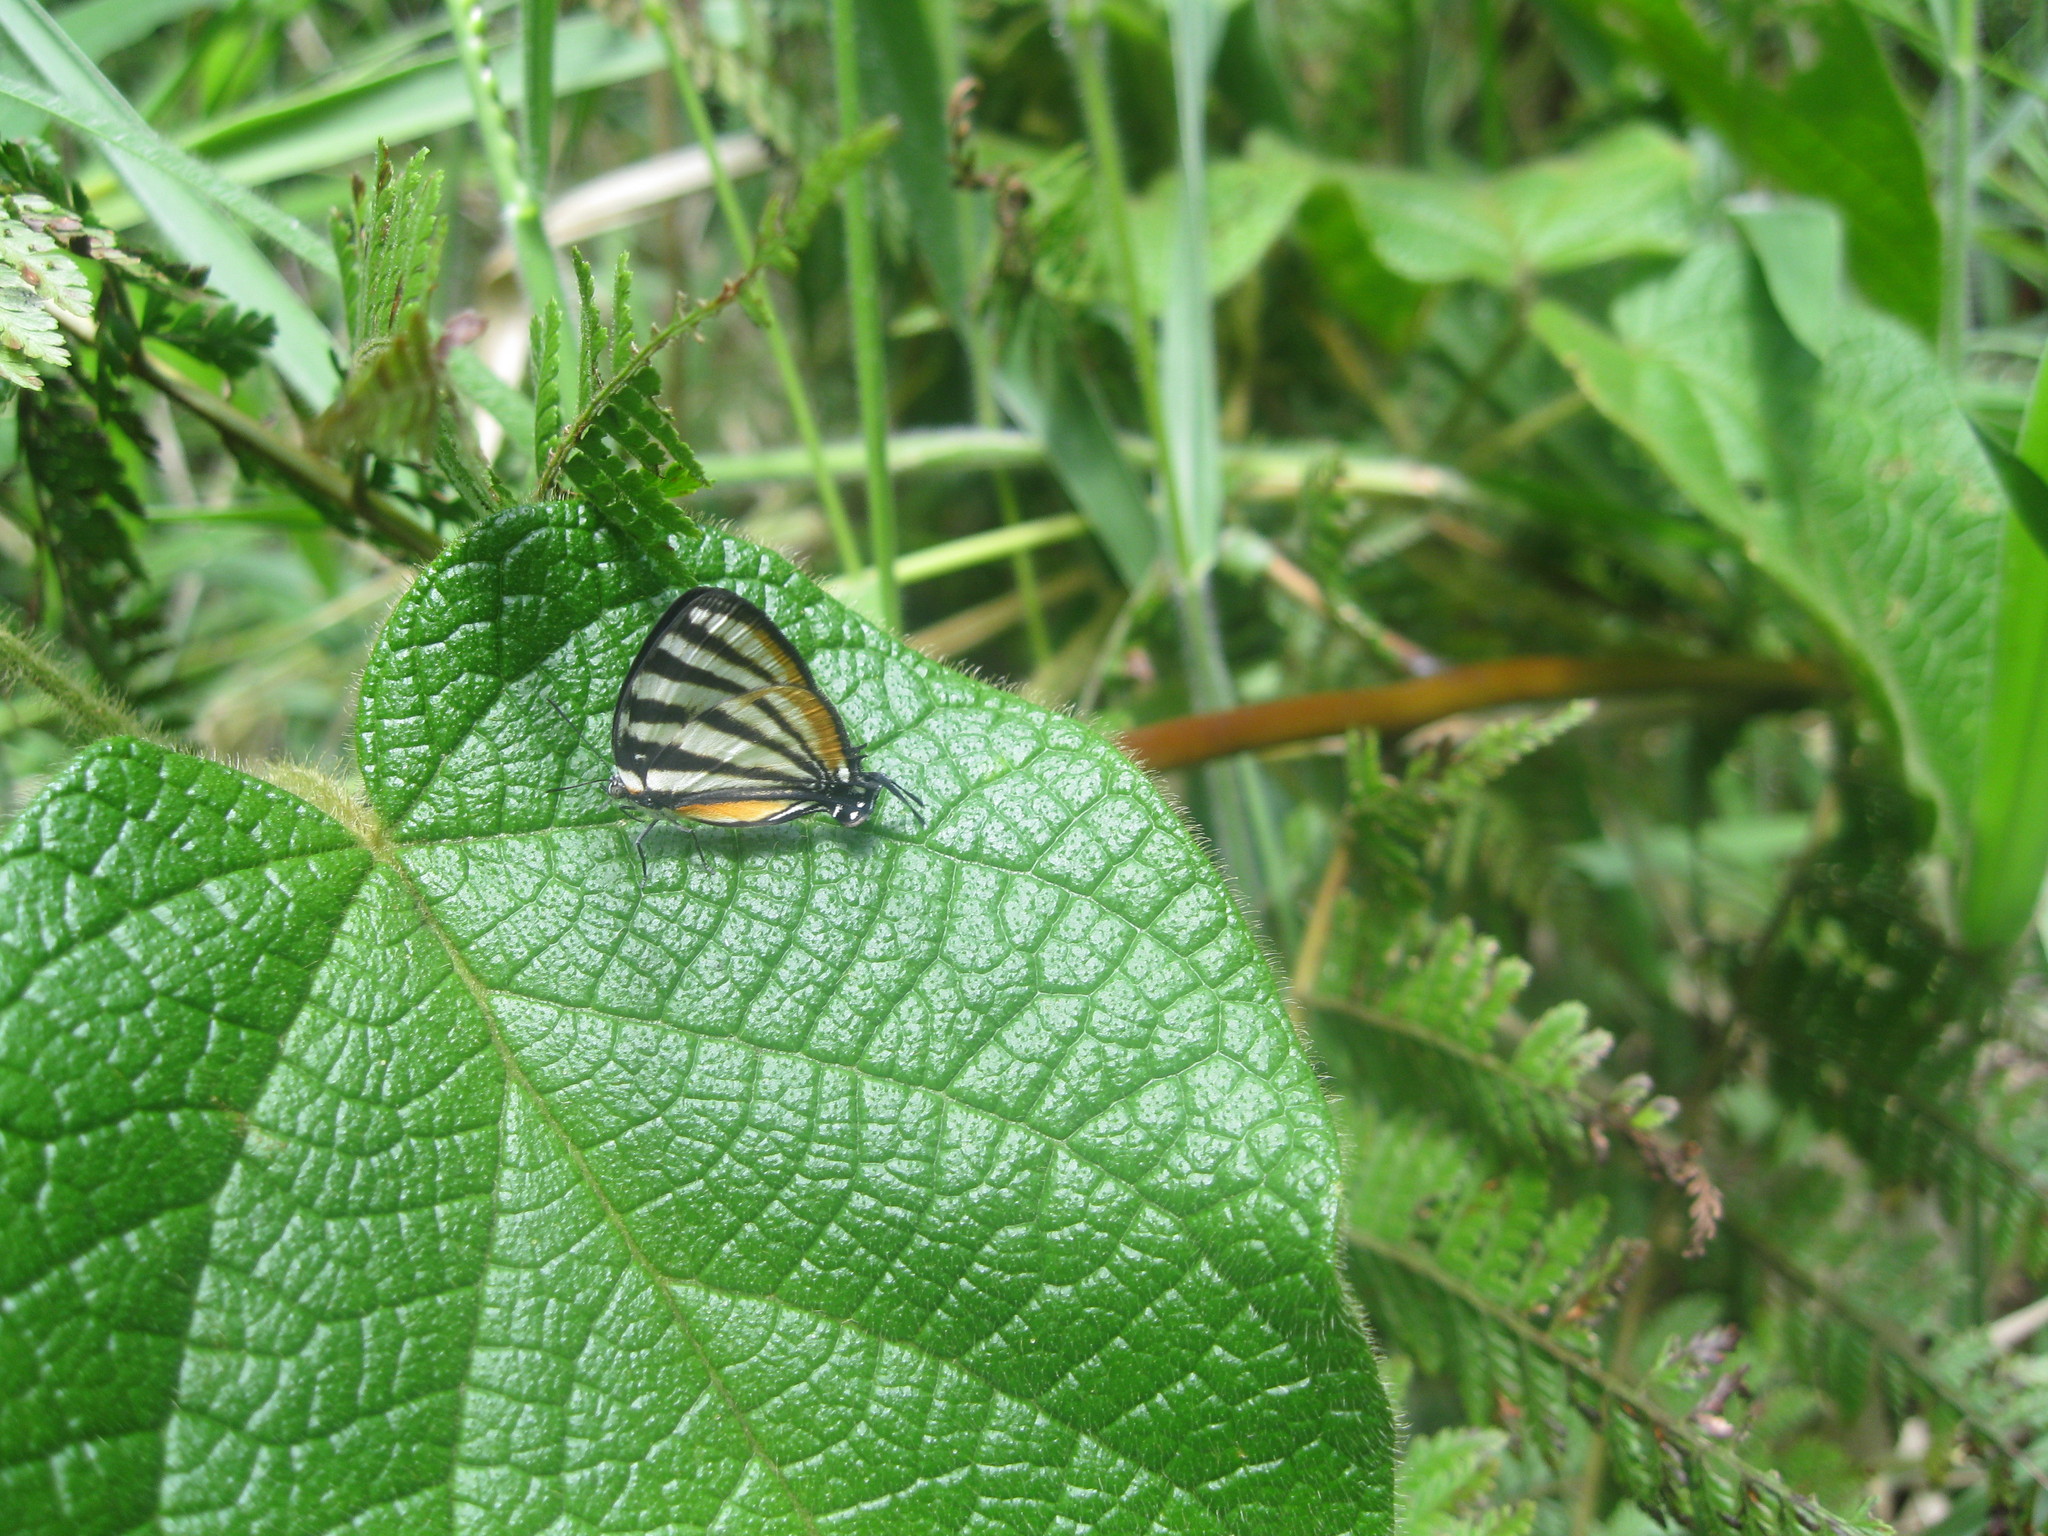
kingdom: Animalia
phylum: Arthropoda
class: Insecta
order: Lepidoptera
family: Lycaenidae
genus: Arawacus
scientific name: Arawacus lincoides
